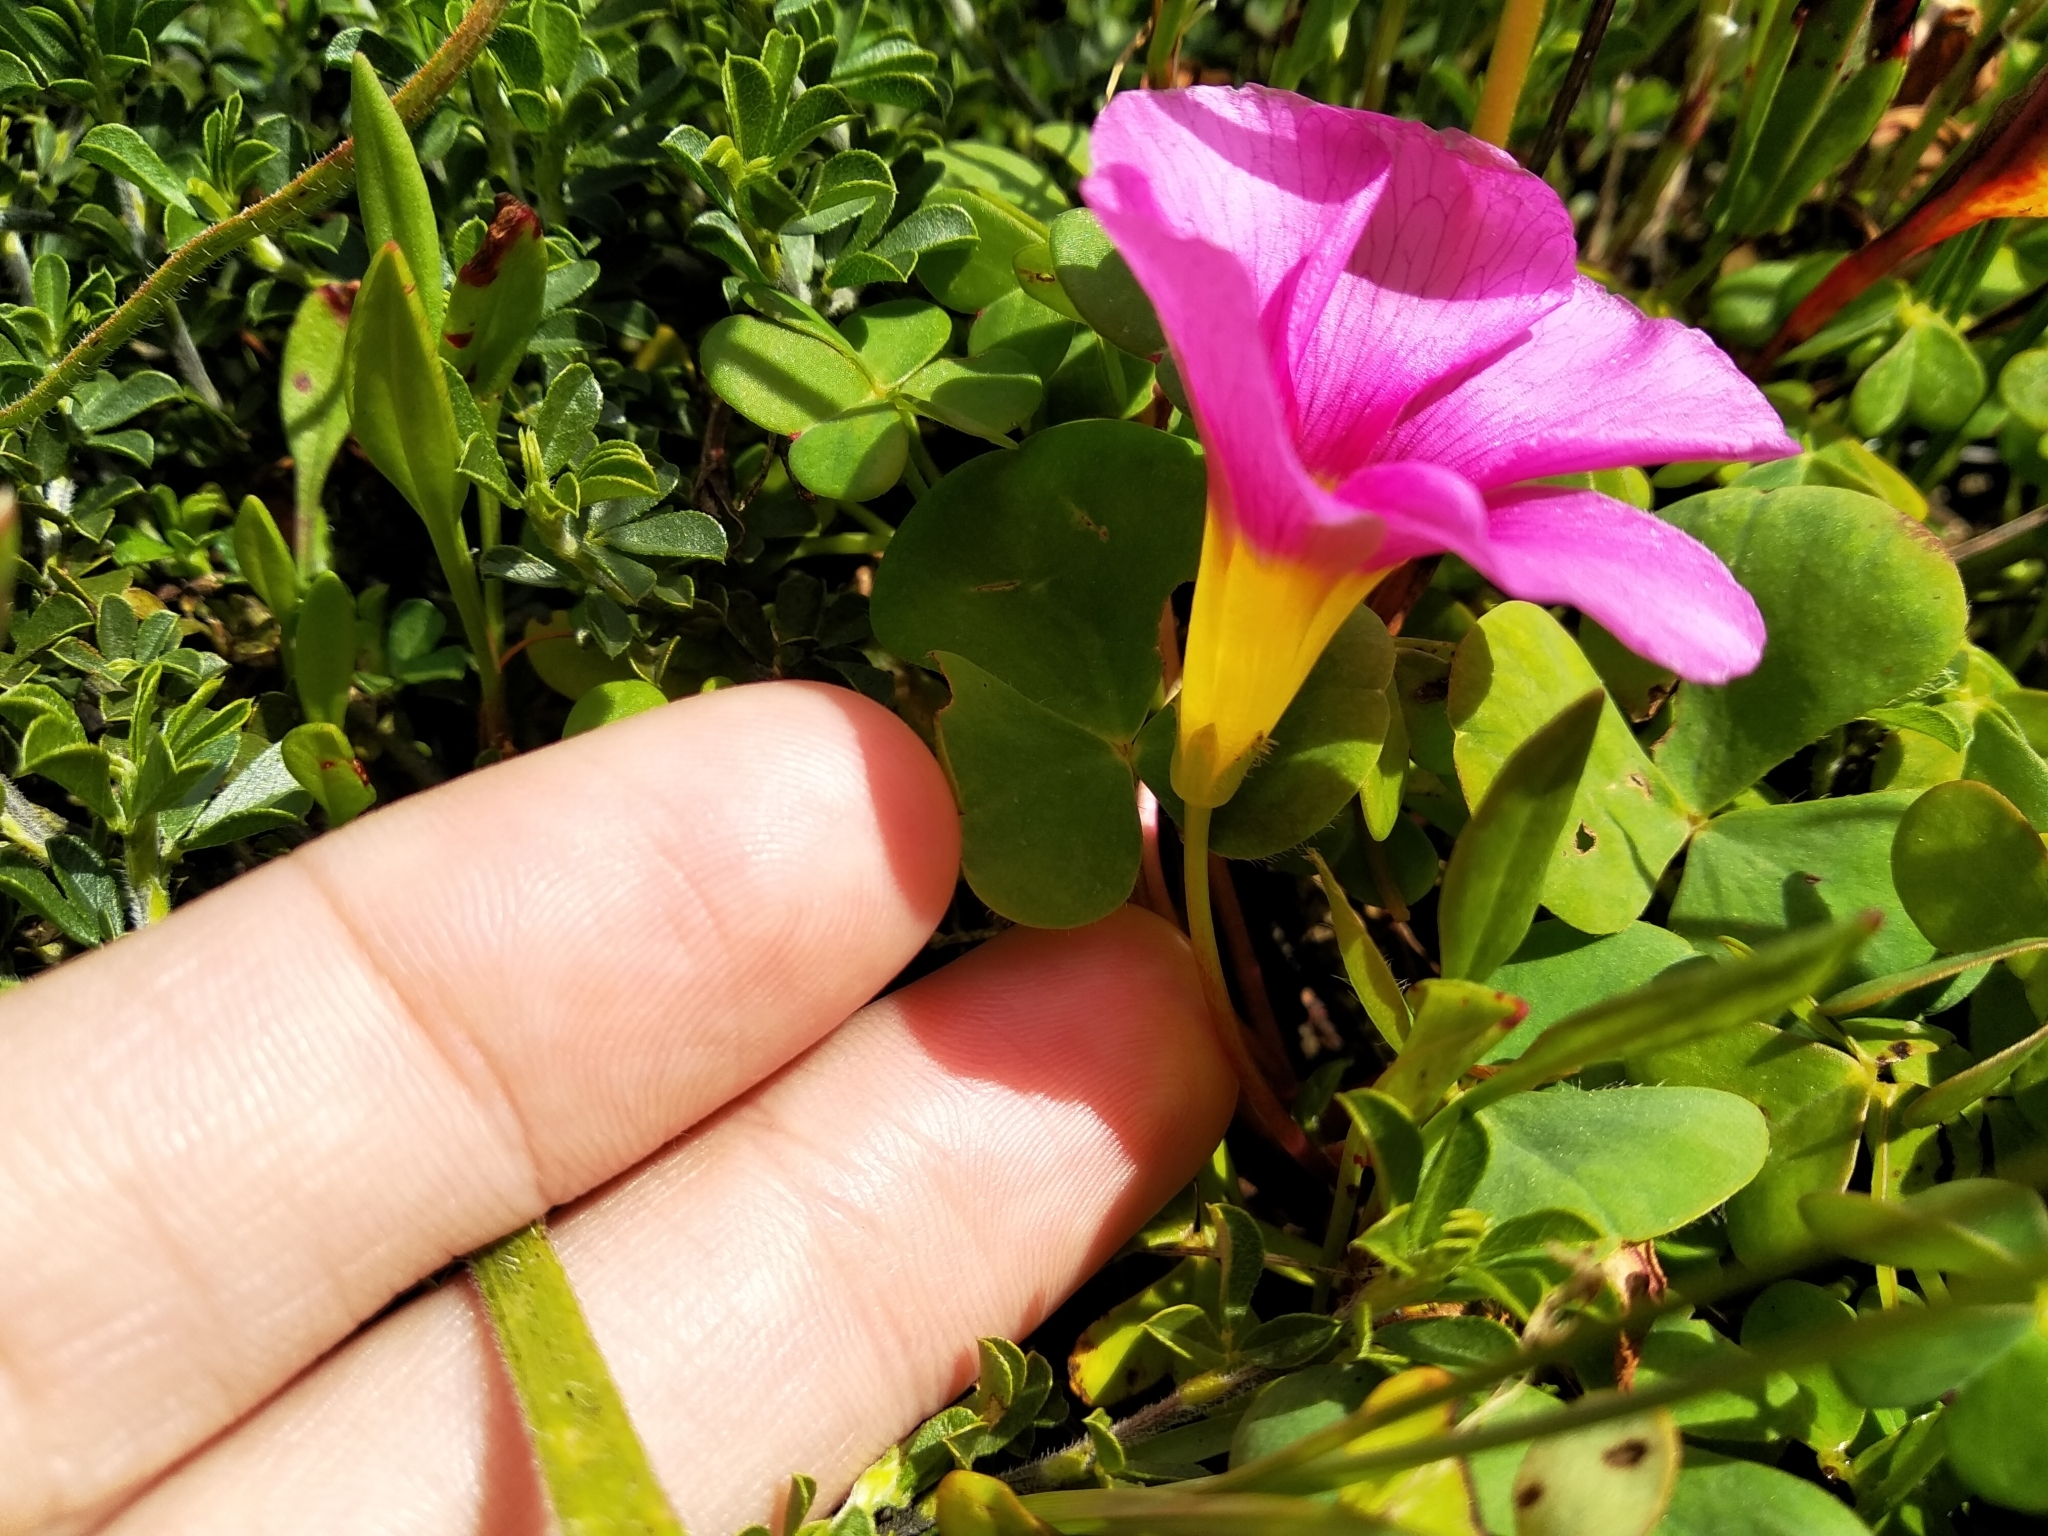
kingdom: Plantae
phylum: Tracheophyta
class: Magnoliopsida
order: Oxalidales
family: Oxalidaceae
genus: Oxalis
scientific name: Oxalis purpurea
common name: Purple woodsorrel
